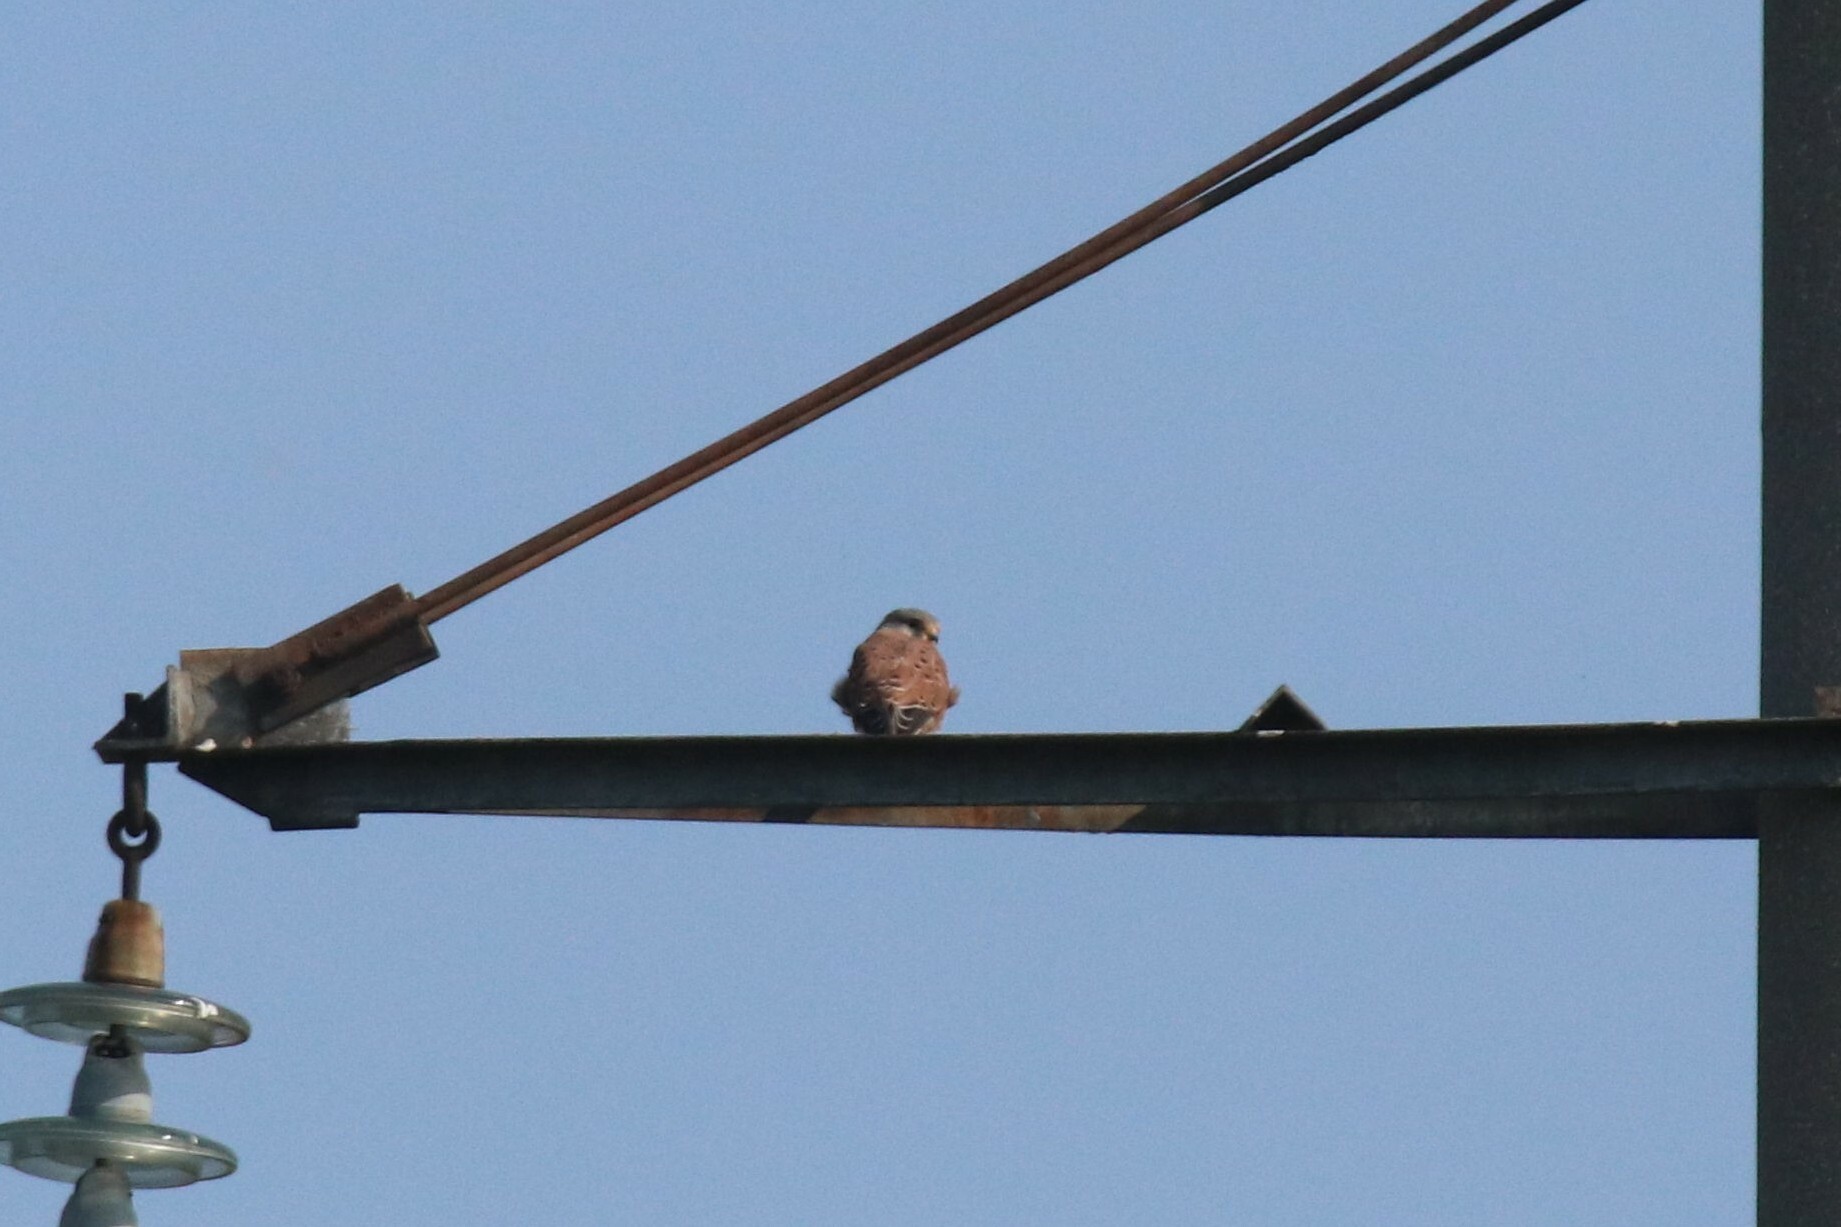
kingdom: Animalia
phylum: Chordata
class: Aves
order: Falconiformes
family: Falconidae
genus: Falco
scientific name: Falco tinnunculus
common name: Common kestrel
